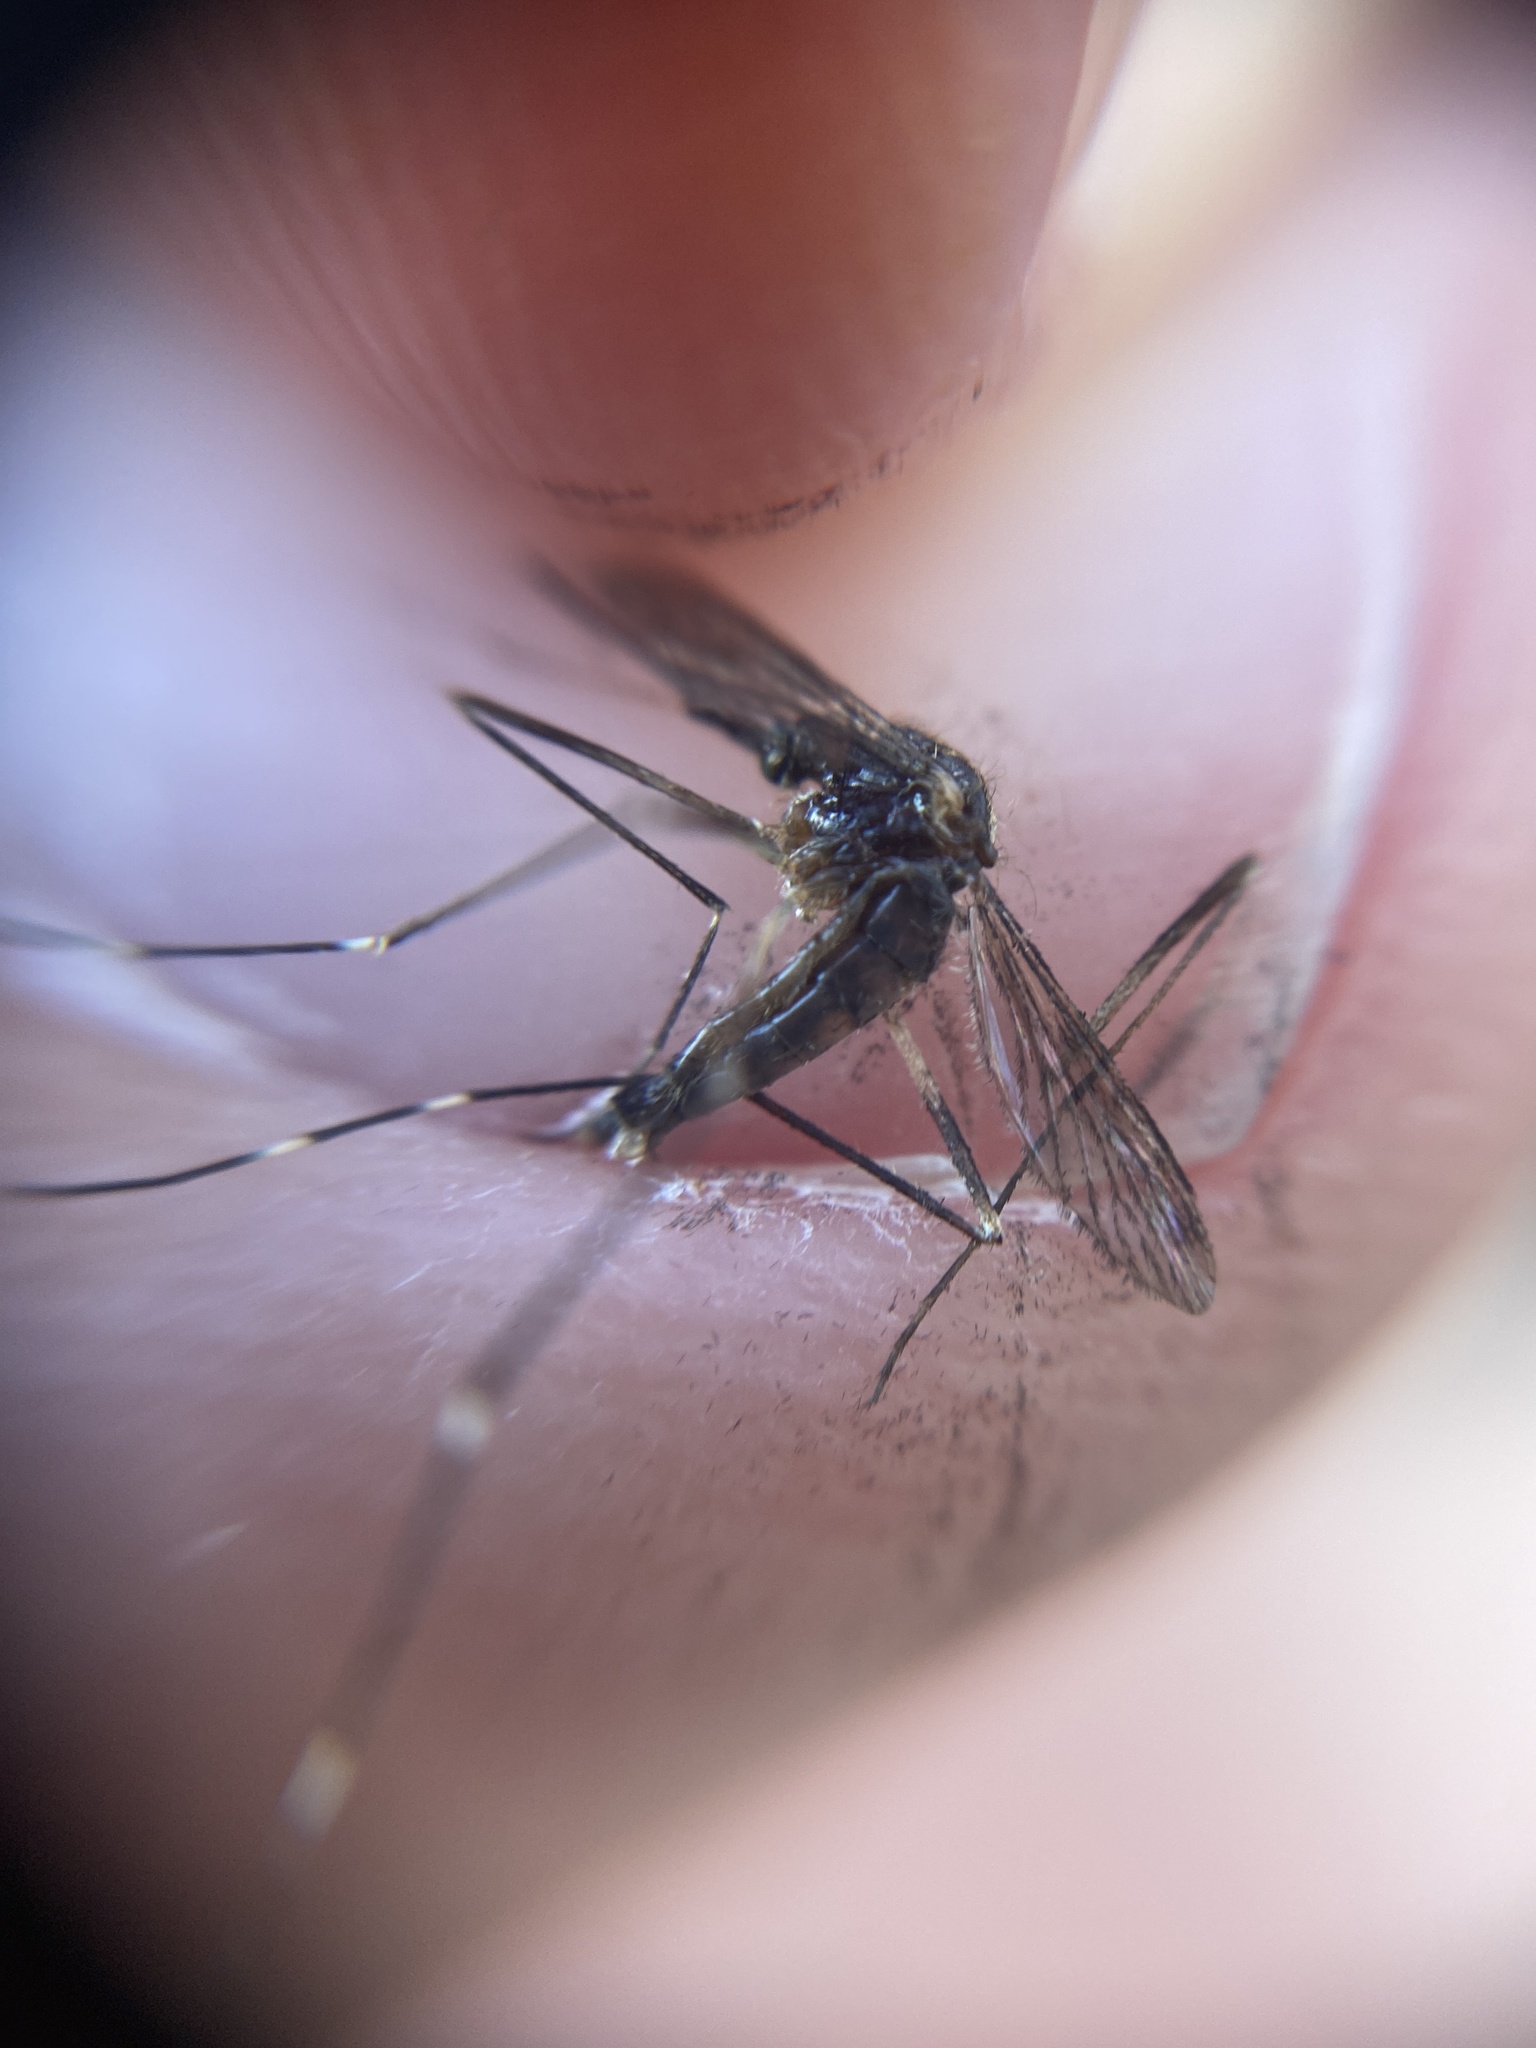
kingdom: Animalia
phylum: Arthropoda
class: Insecta
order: Diptera
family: Culicidae
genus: Aedes
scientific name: Aedes japonicus
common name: Asian bush mosquito
